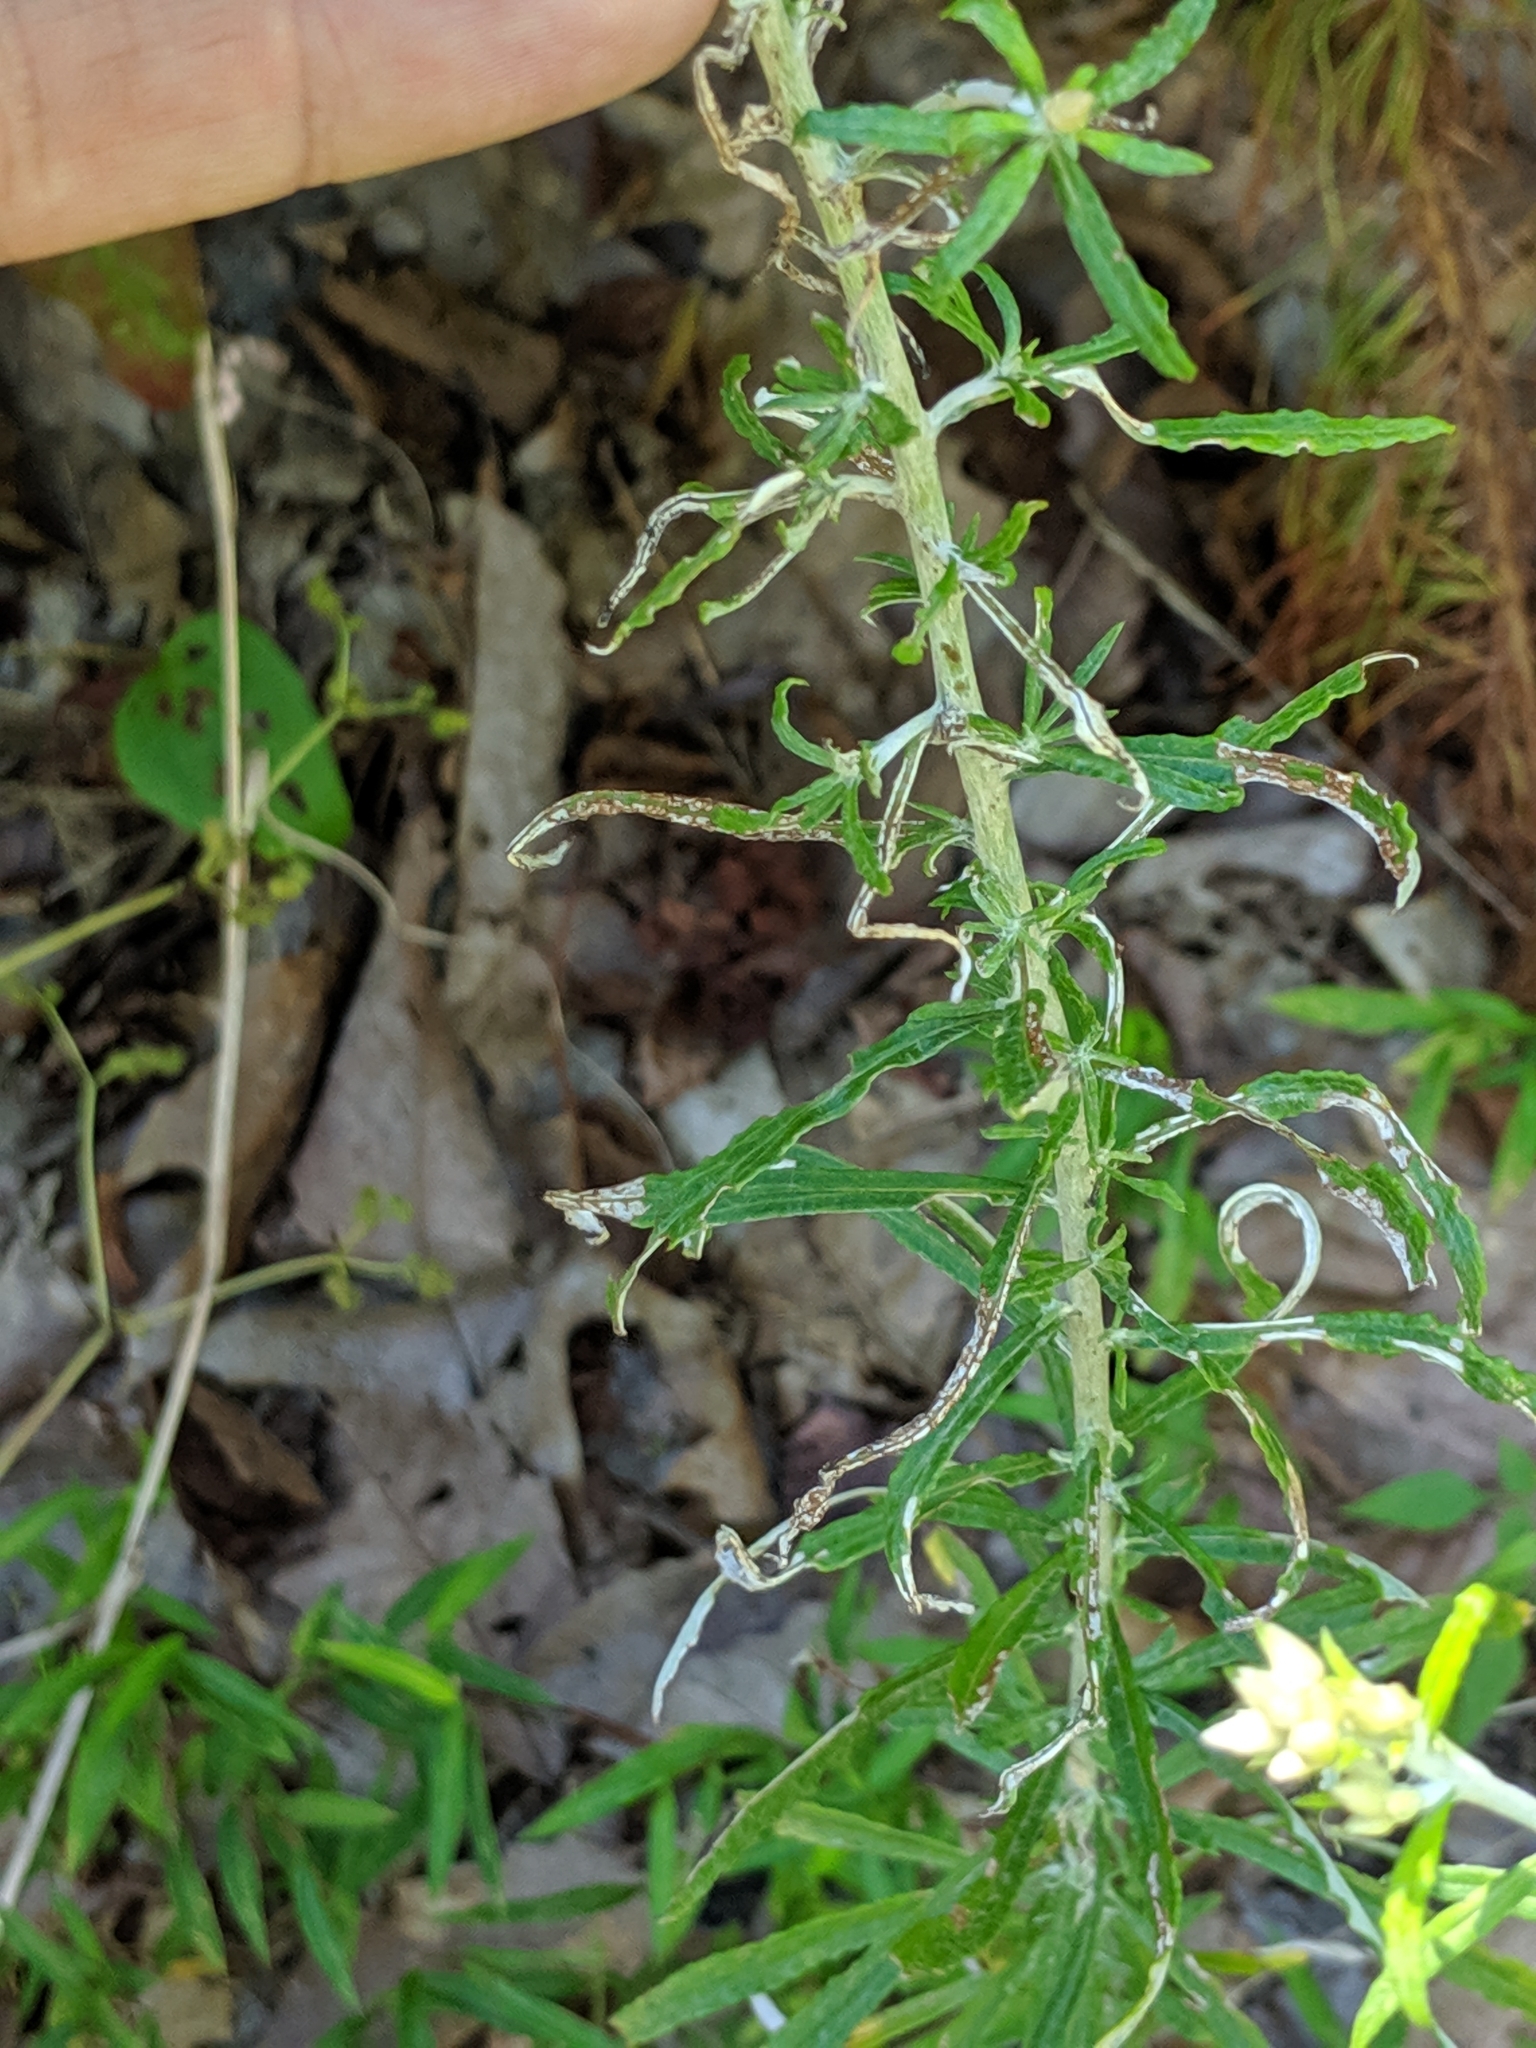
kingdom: Plantae
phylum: Tracheophyta
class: Magnoliopsida
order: Asterales
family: Asteraceae
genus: Pseudognaphalium
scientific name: Pseudognaphalium obtusifolium
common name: Eastern rabbit-tobacco
